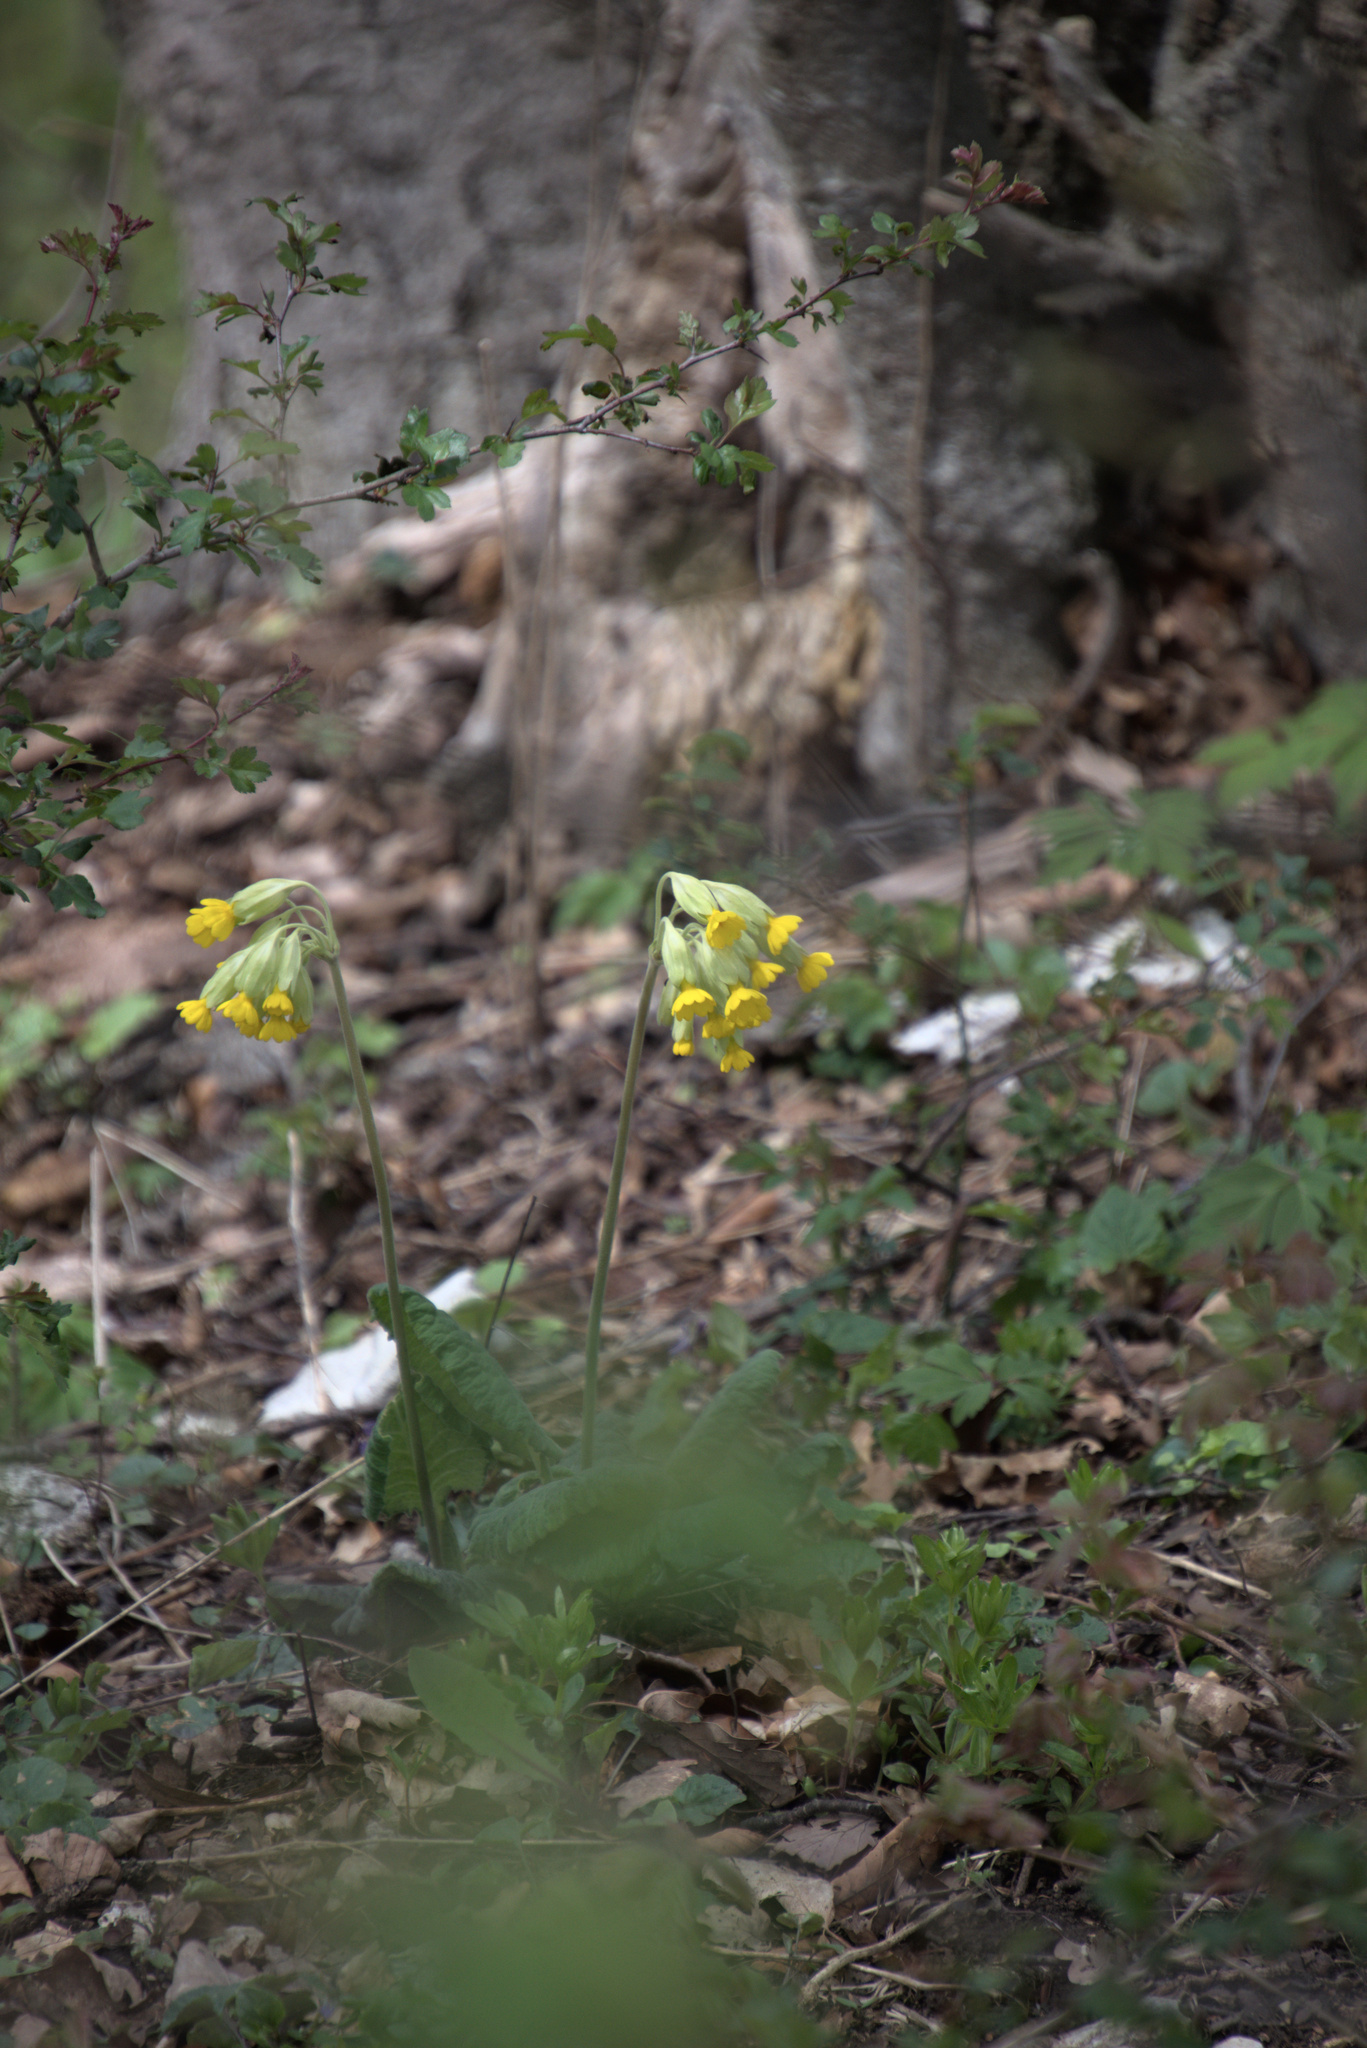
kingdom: Plantae
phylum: Tracheophyta
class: Magnoliopsida
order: Ericales
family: Primulaceae
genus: Primula
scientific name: Primula veris
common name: Cowslip
